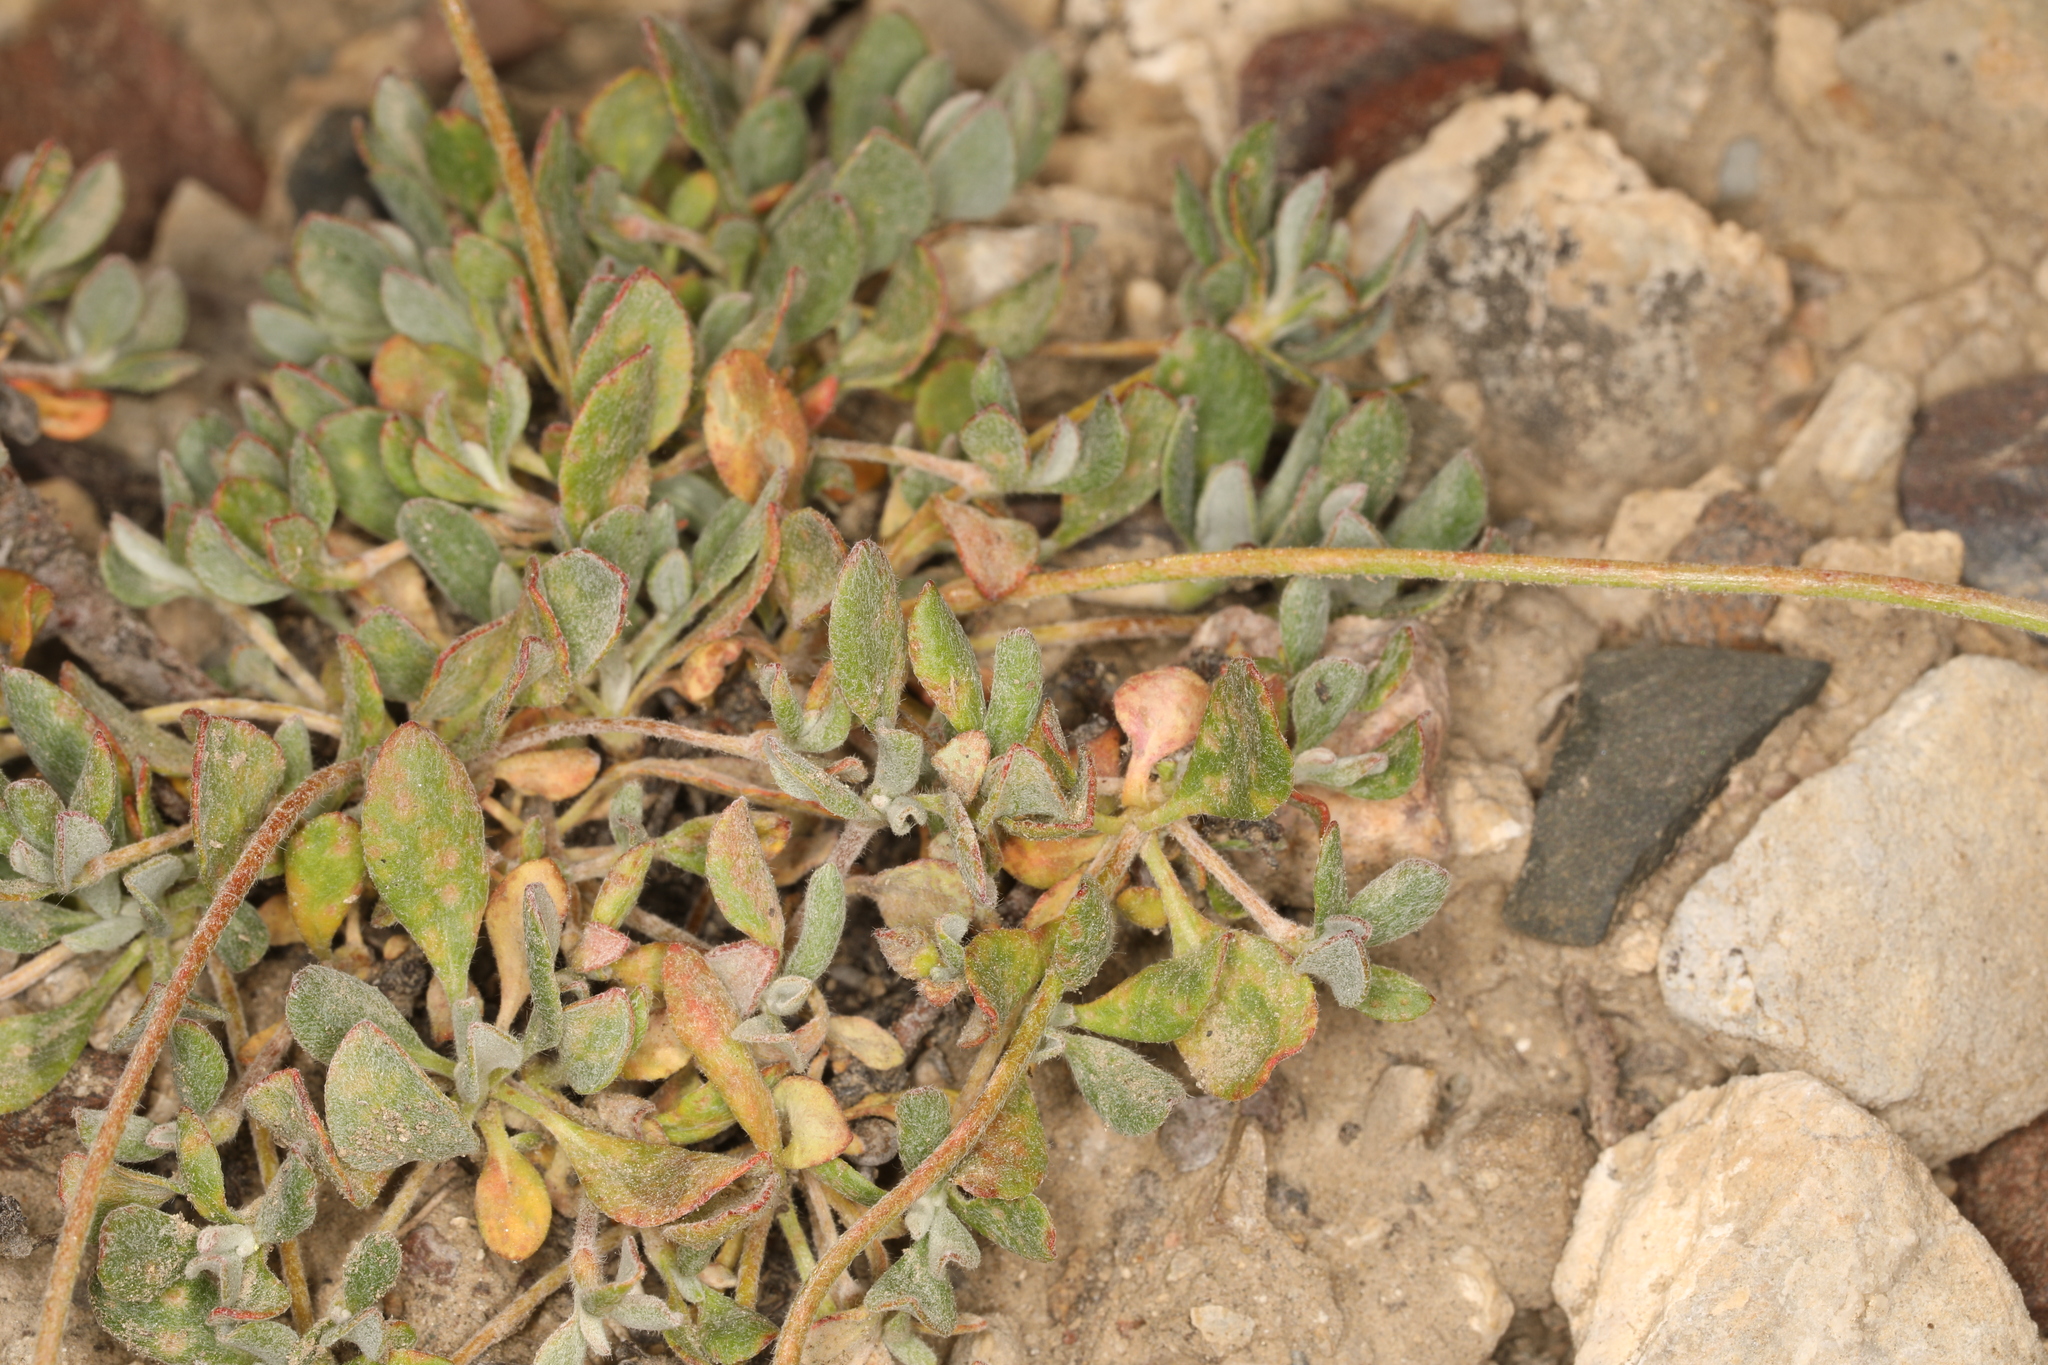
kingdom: Plantae
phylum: Tracheophyta
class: Magnoliopsida
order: Caryophyllales
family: Polygonaceae
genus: Eriogonum
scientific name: Eriogonum umbellatum
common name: Sulfur-buckwheat
